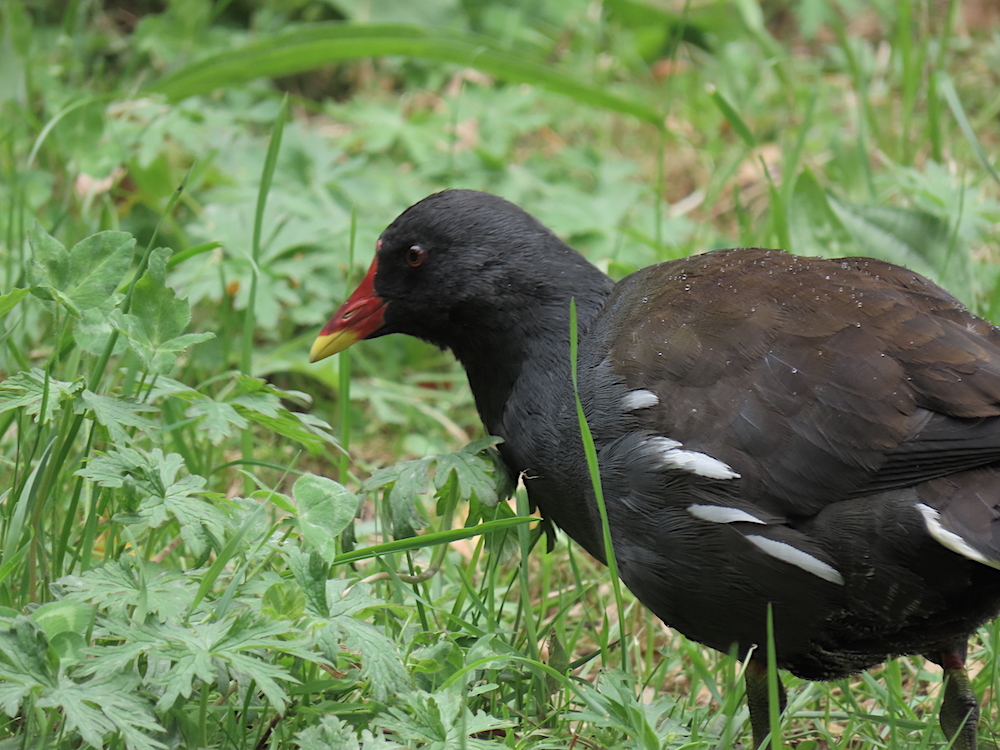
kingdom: Animalia
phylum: Chordata
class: Aves
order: Gruiformes
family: Rallidae
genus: Gallinula
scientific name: Gallinula chloropus
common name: Common moorhen
